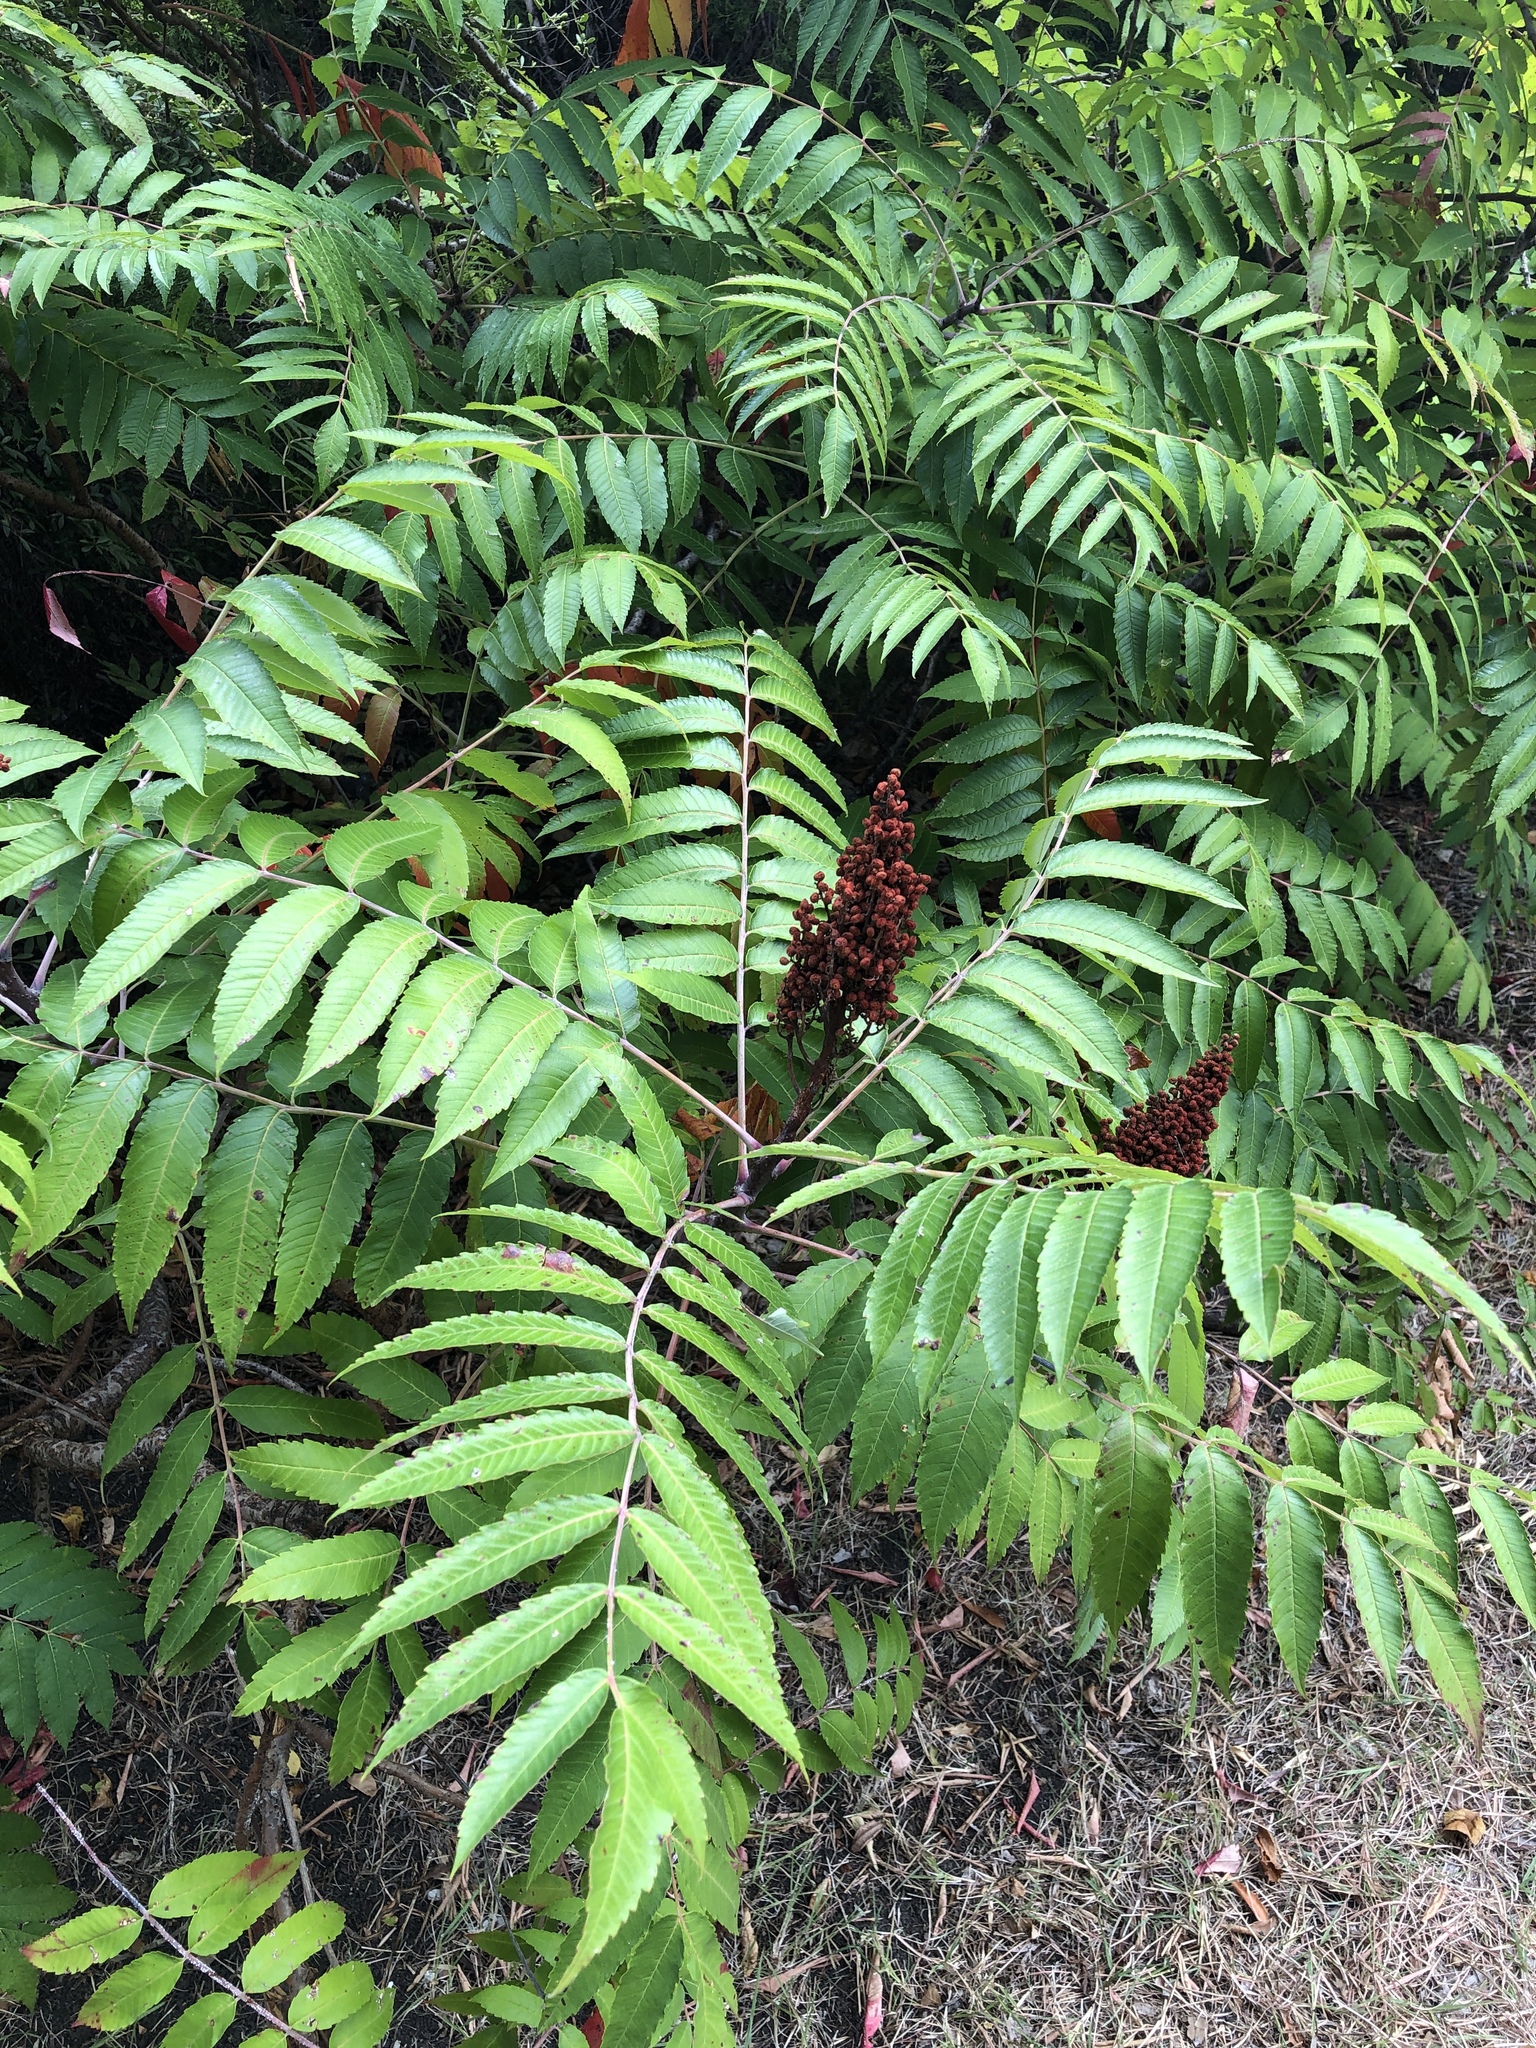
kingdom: Plantae
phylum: Tracheophyta
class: Magnoliopsida
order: Sapindales
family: Anacardiaceae
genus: Rhus
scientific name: Rhus glabra
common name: Scarlet sumac
